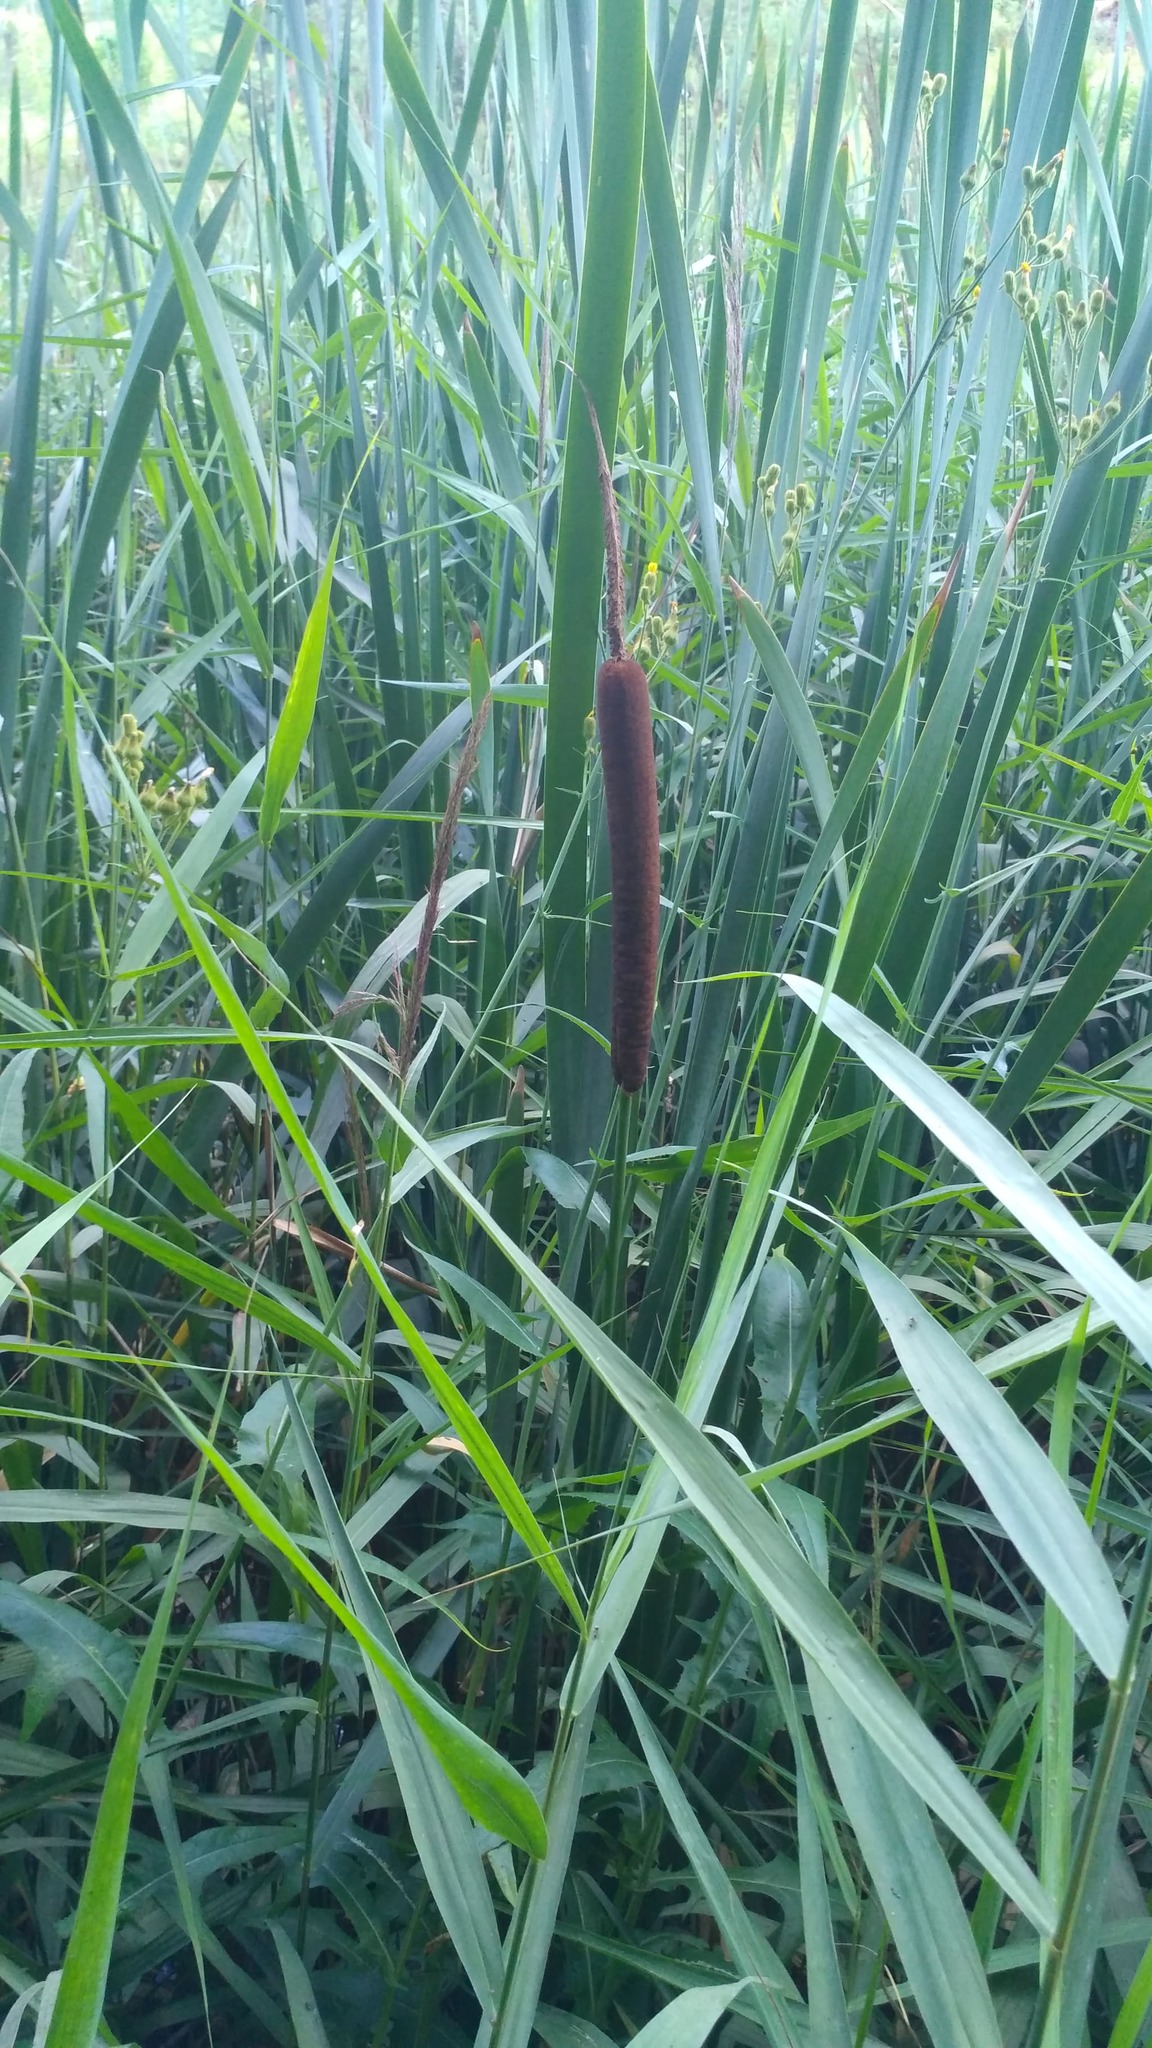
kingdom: Plantae
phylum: Tracheophyta
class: Liliopsida
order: Poales
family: Typhaceae
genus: Typha
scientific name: Typha latifolia
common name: Broadleaf cattail
